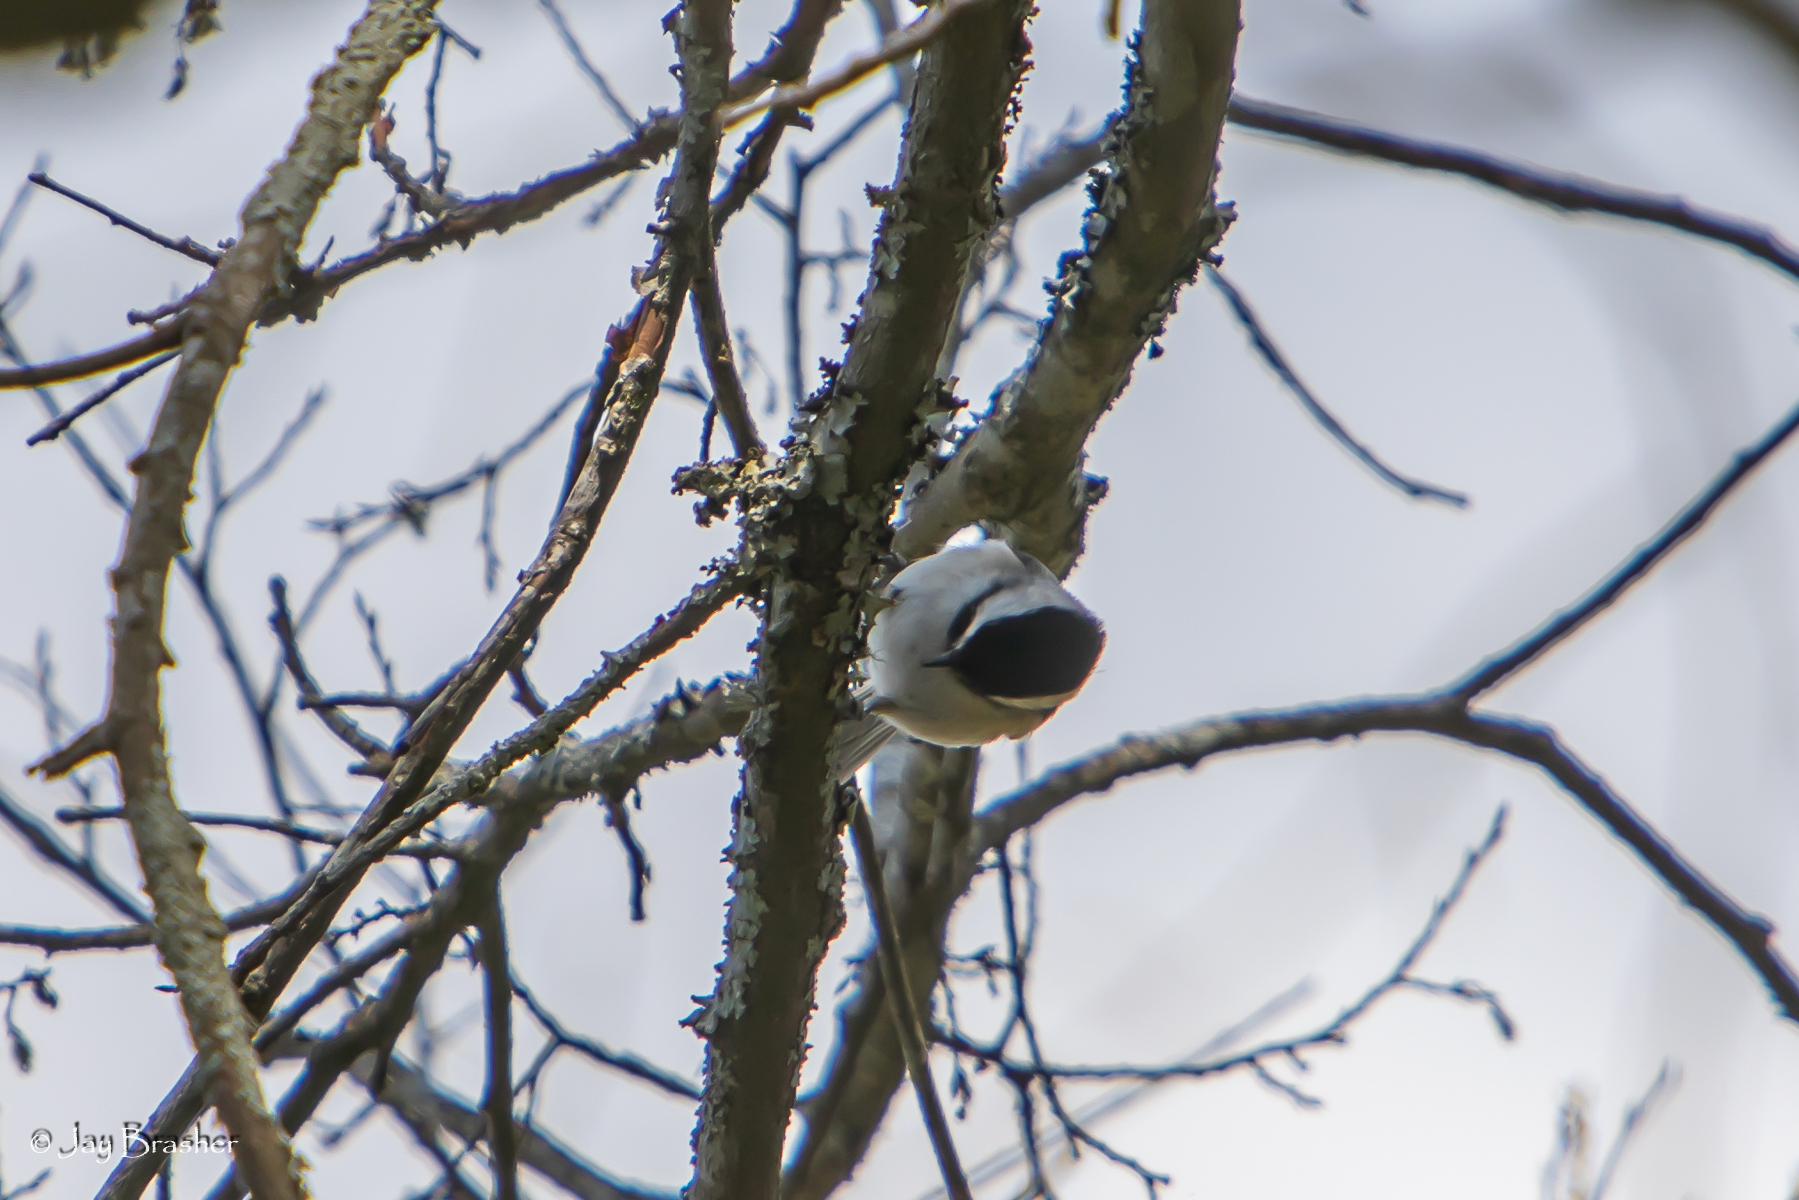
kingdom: Animalia
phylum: Chordata
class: Aves
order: Passeriformes
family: Paridae
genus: Poecile
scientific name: Poecile carolinensis
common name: Carolina chickadee
